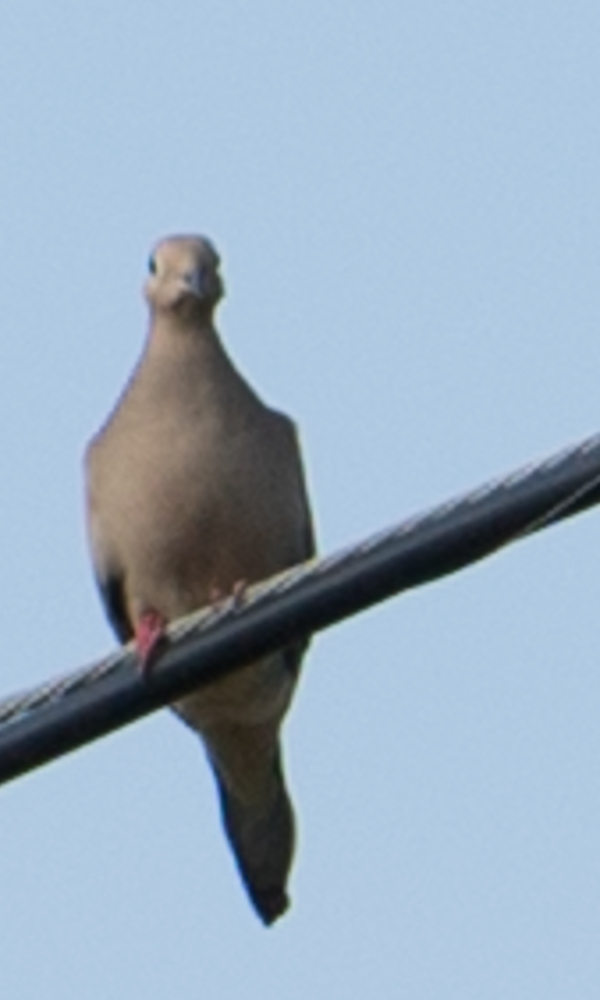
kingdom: Animalia
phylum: Chordata
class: Aves
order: Columbiformes
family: Columbidae
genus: Zenaida
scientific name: Zenaida macroura
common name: Mourning dove
